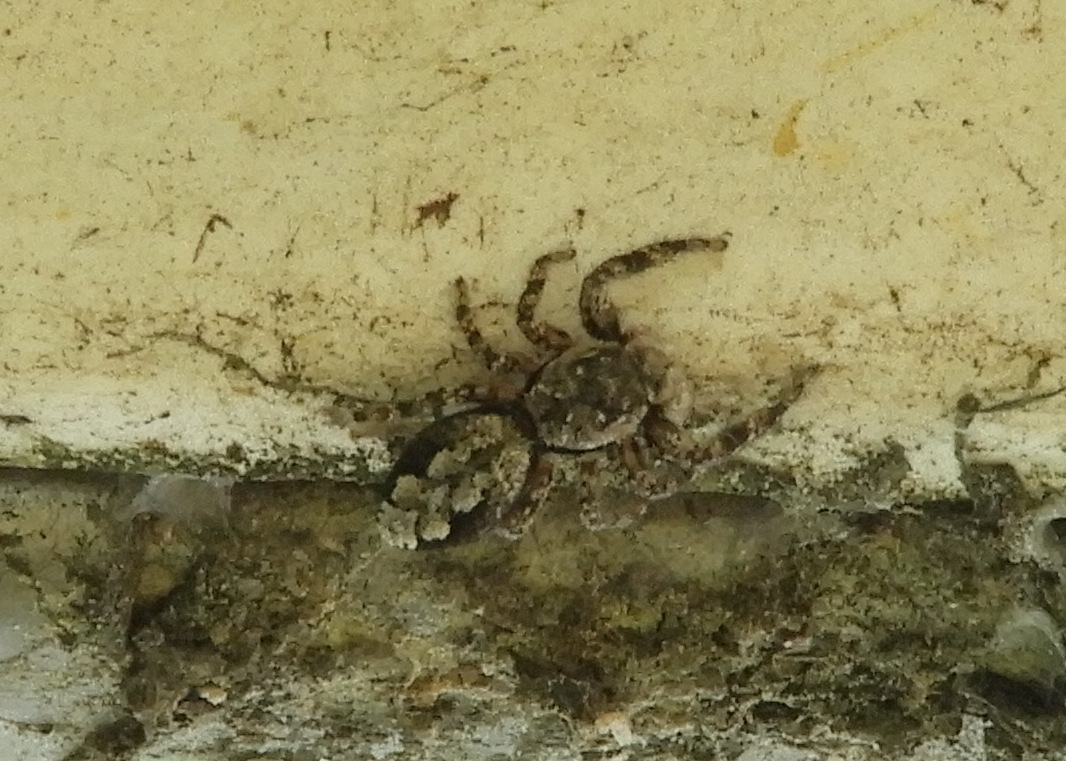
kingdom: Animalia
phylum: Arthropoda
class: Arachnida
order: Araneae
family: Salticidae
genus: Platycryptus
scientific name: Platycryptus undatus
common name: Tan jumping spider
